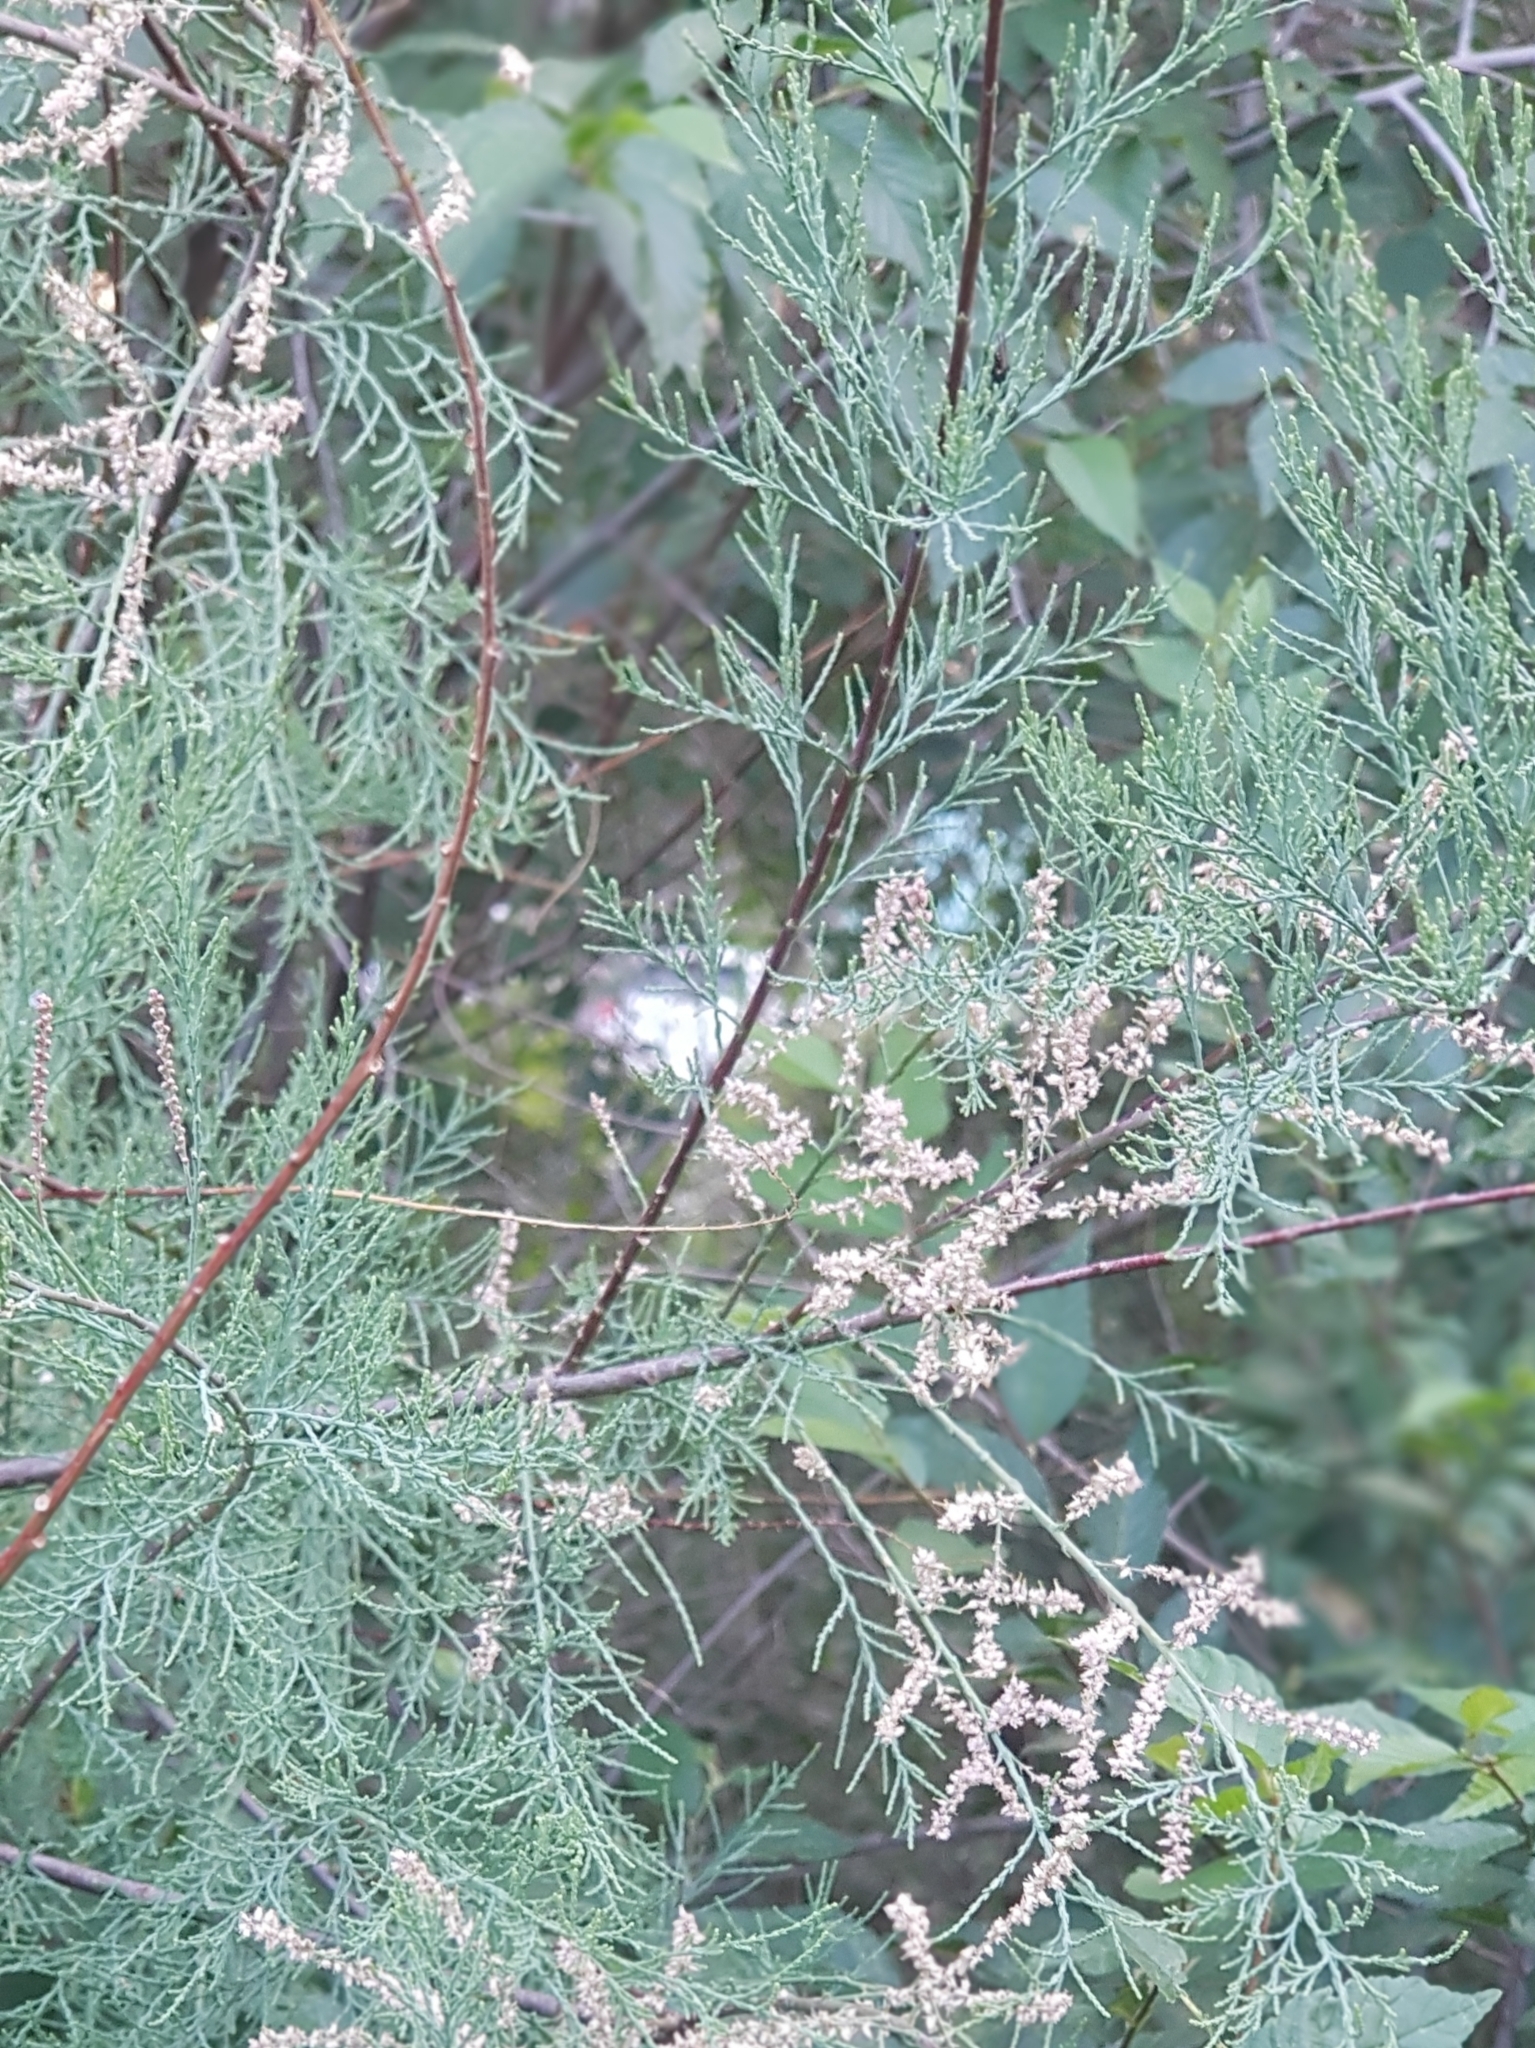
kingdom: Plantae
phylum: Tracheophyta
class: Magnoliopsida
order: Caryophyllales
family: Tamaricaceae
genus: Tamarix
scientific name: Tamarix ramosissima
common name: Pink tamarisk
